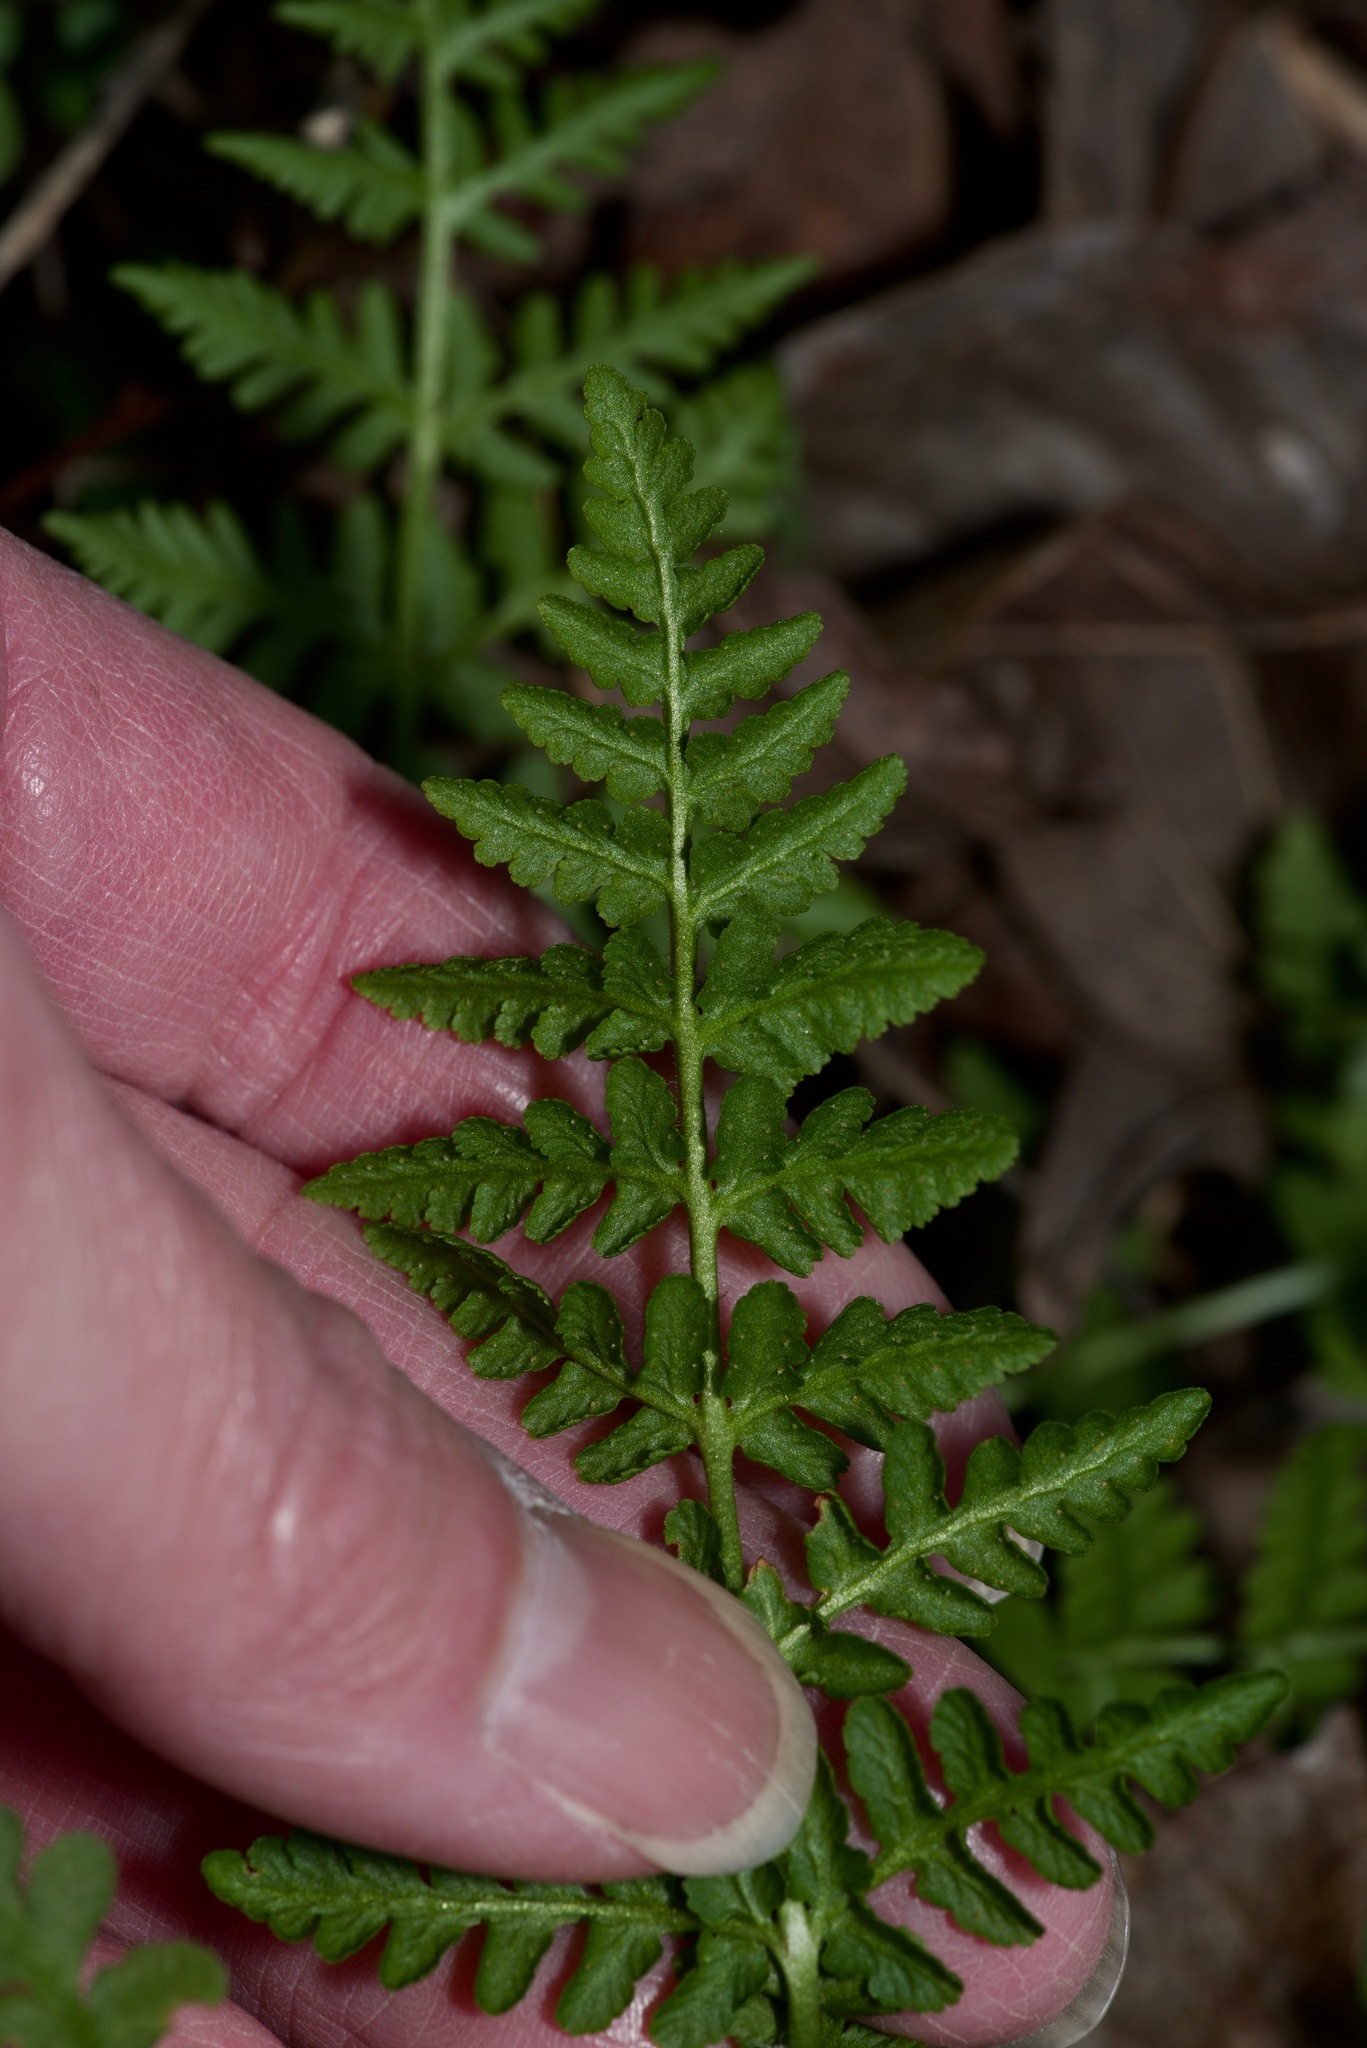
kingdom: Plantae
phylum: Tracheophyta
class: Polypodiopsida
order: Polypodiales
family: Woodsiaceae
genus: Physematium
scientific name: Physematium obtusum
